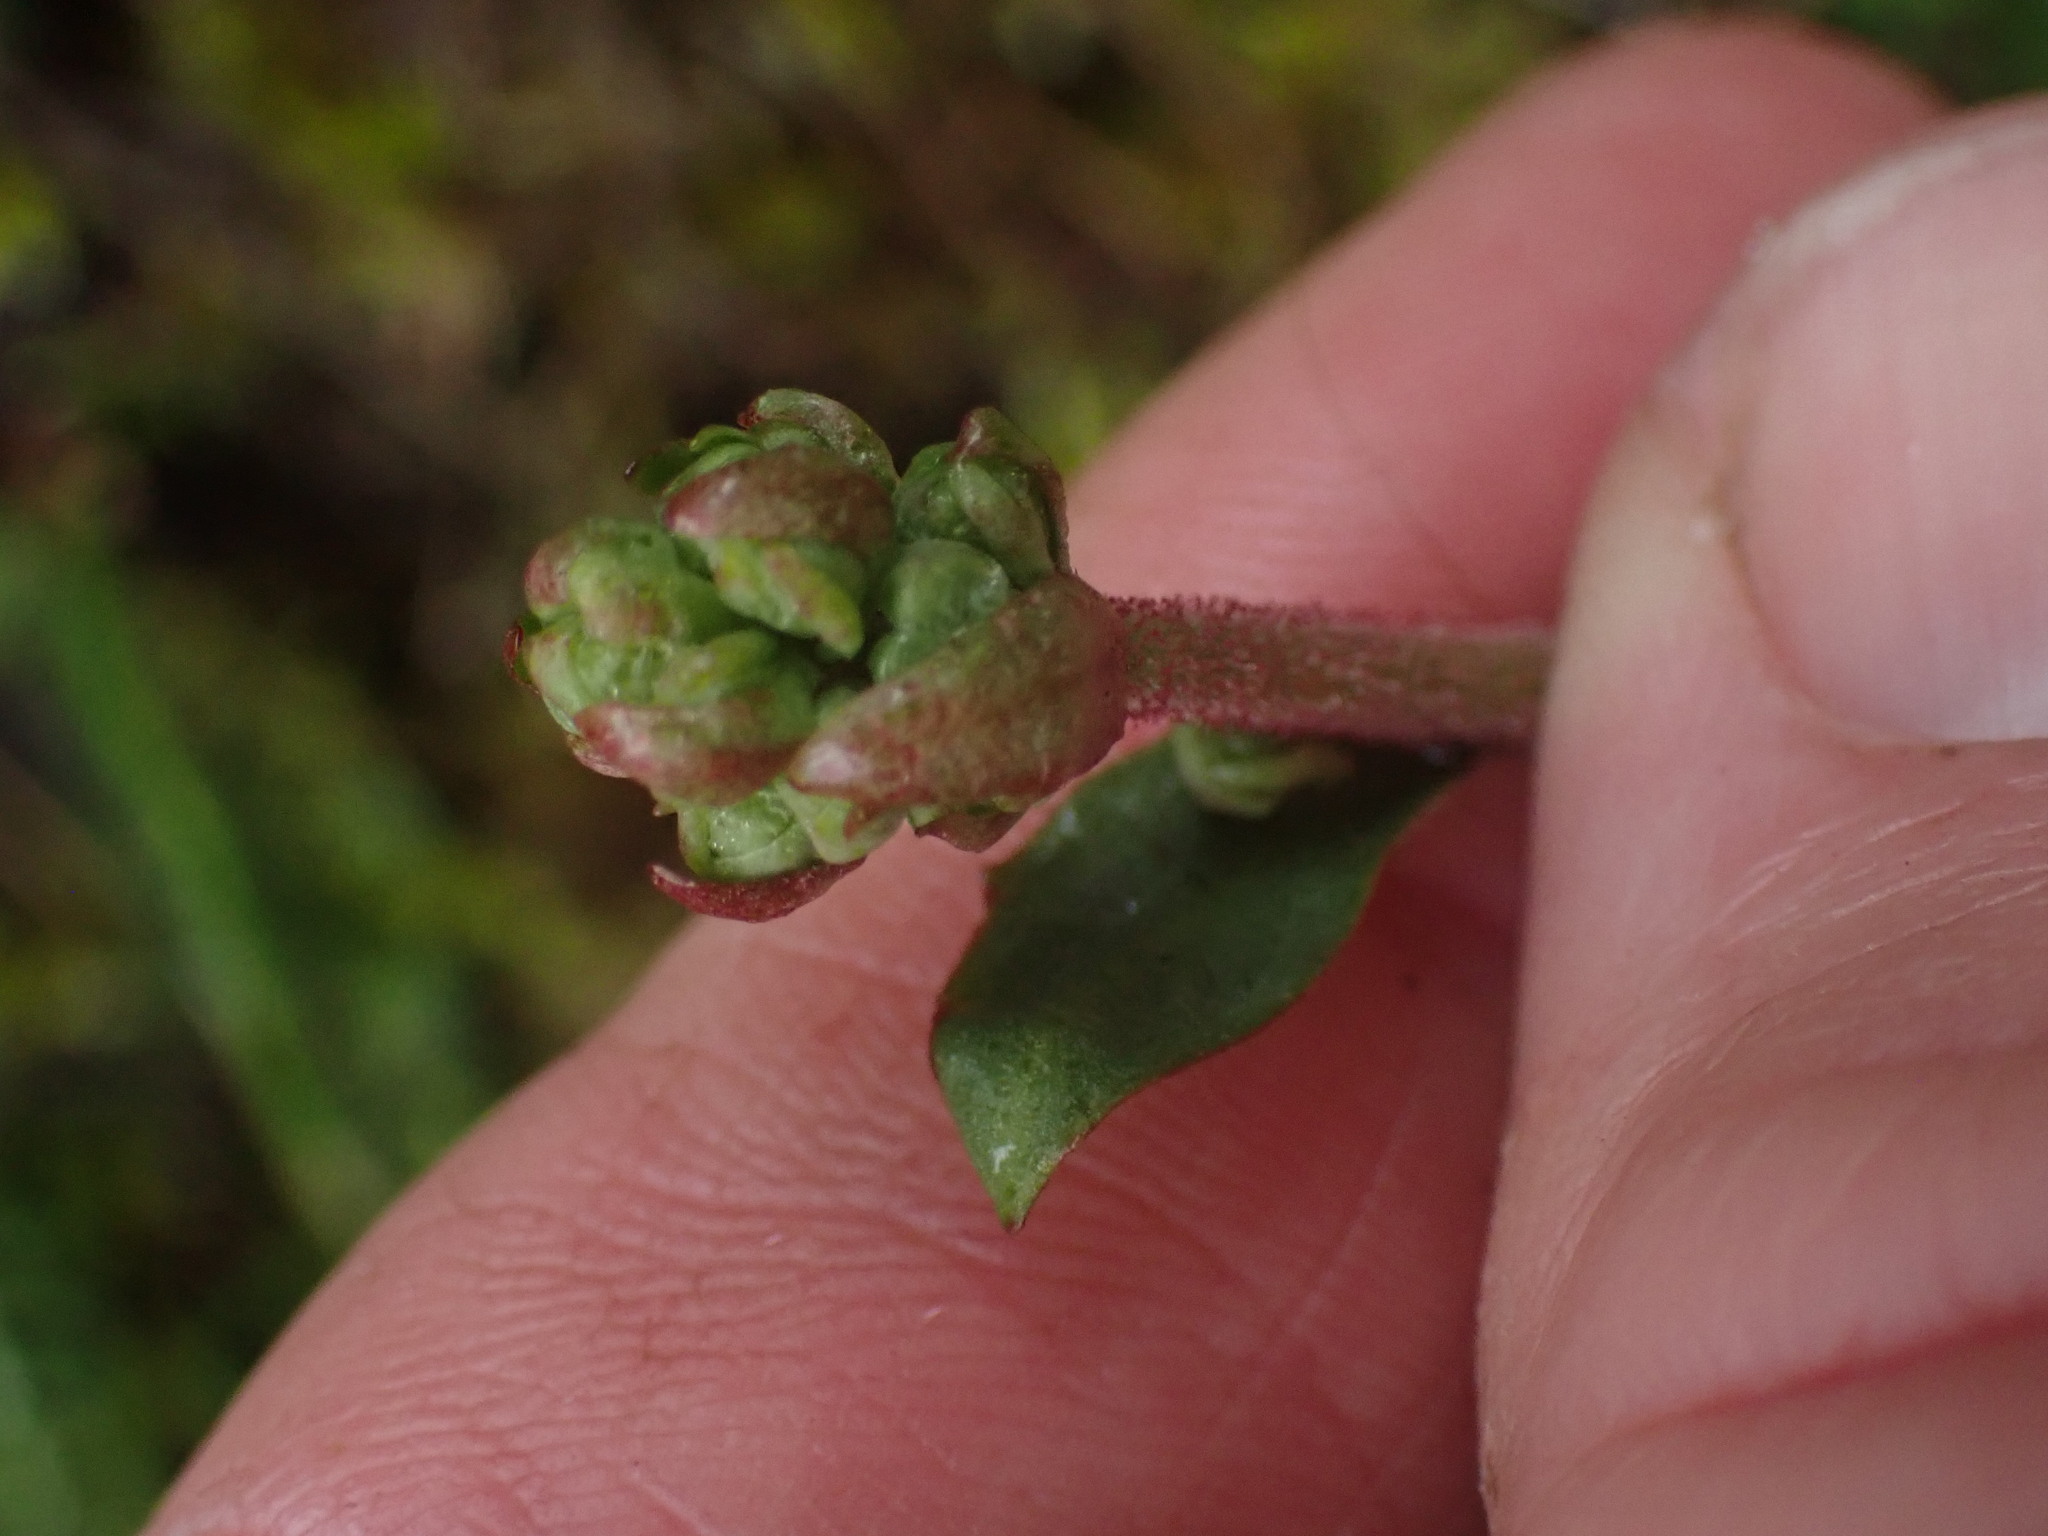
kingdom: Plantae
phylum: Tracheophyta
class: Magnoliopsida
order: Saxifragales
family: Saxifragaceae
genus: Micranthes
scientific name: Micranthes integrifolia
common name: Wholeleaf saxifrage
